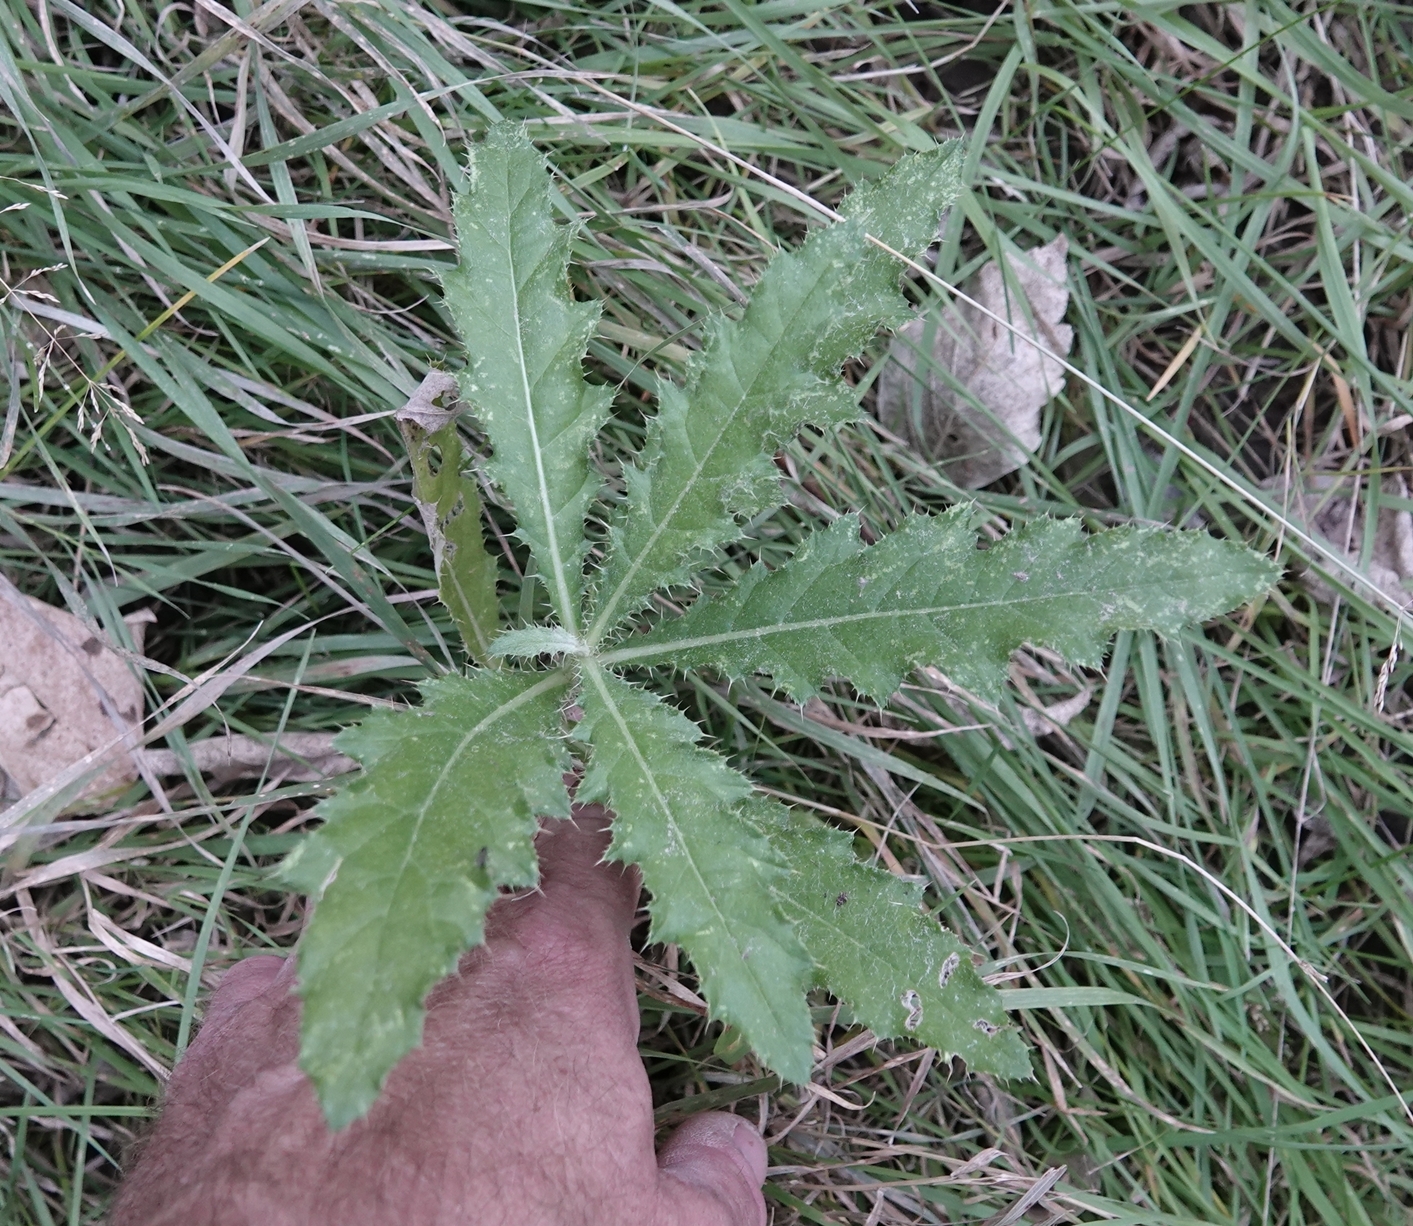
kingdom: Plantae
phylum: Tracheophyta
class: Magnoliopsida
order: Asterales
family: Asteraceae
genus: Cirsium
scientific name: Cirsium arvense
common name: Creeping thistle
